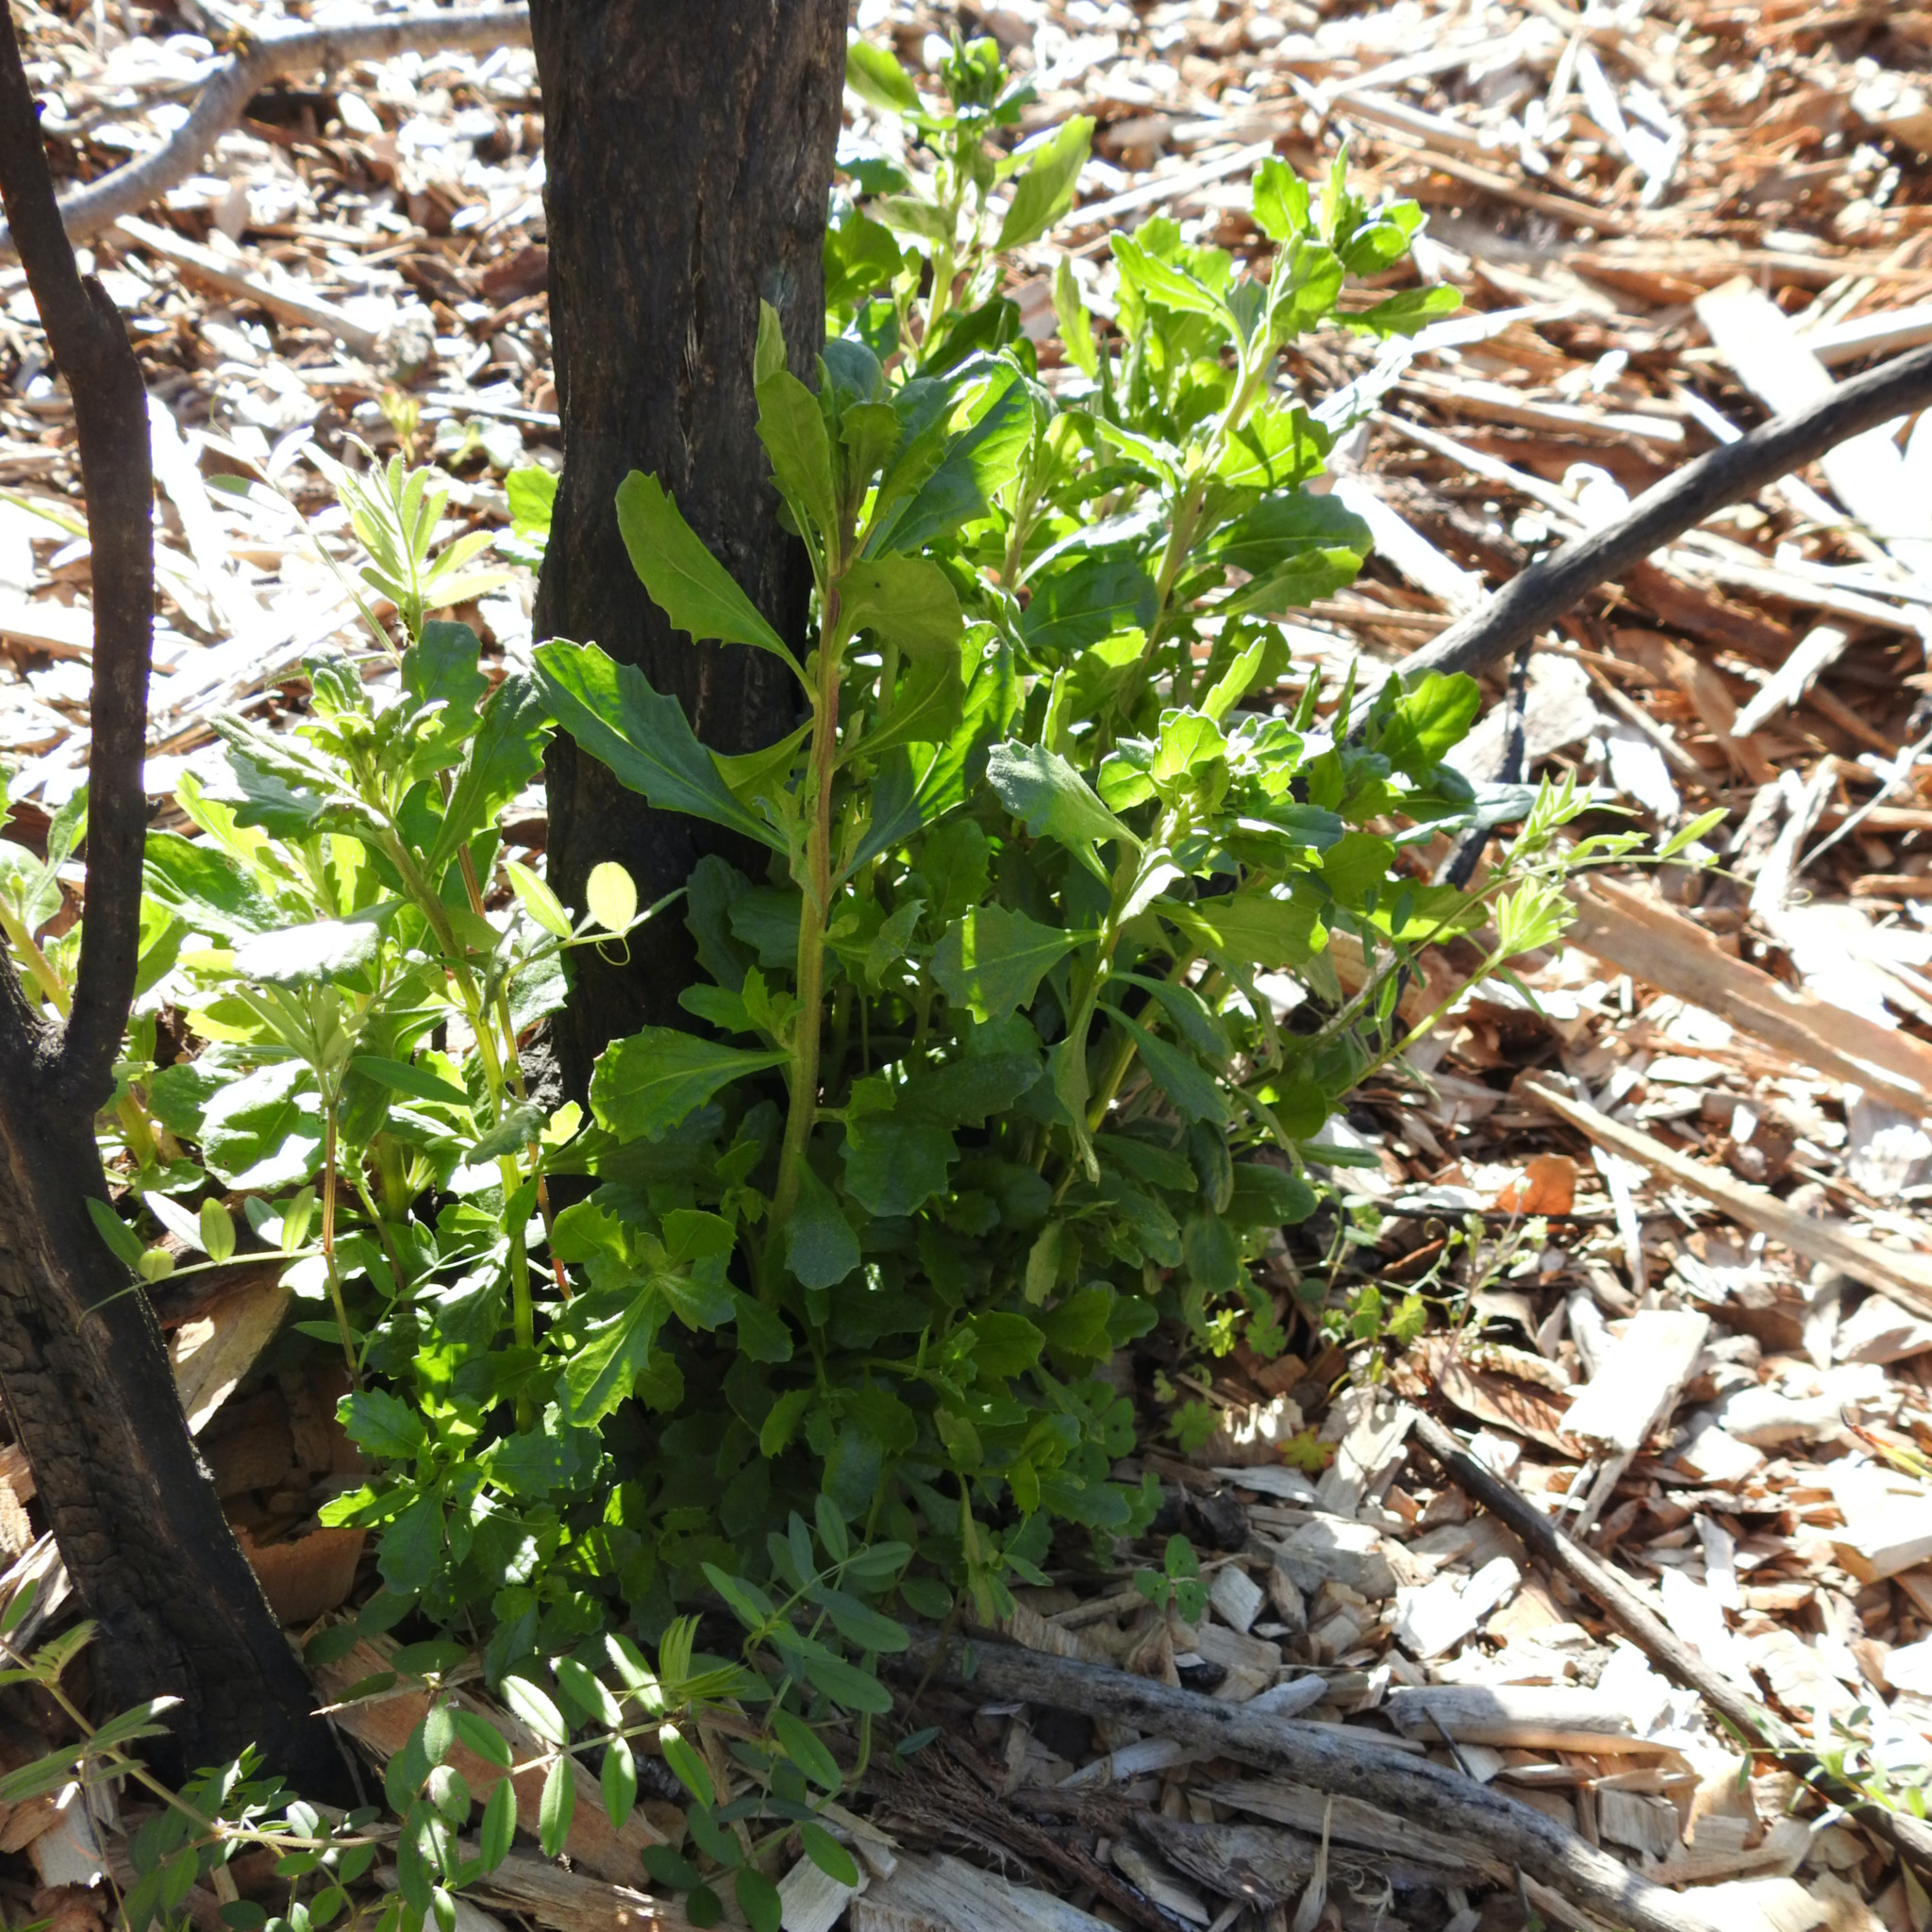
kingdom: Plantae
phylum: Tracheophyta
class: Magnoliopsida
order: Asterales
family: Asteraceae
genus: Baccharis
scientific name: Baccharis pilularis
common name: Coyotebrush
